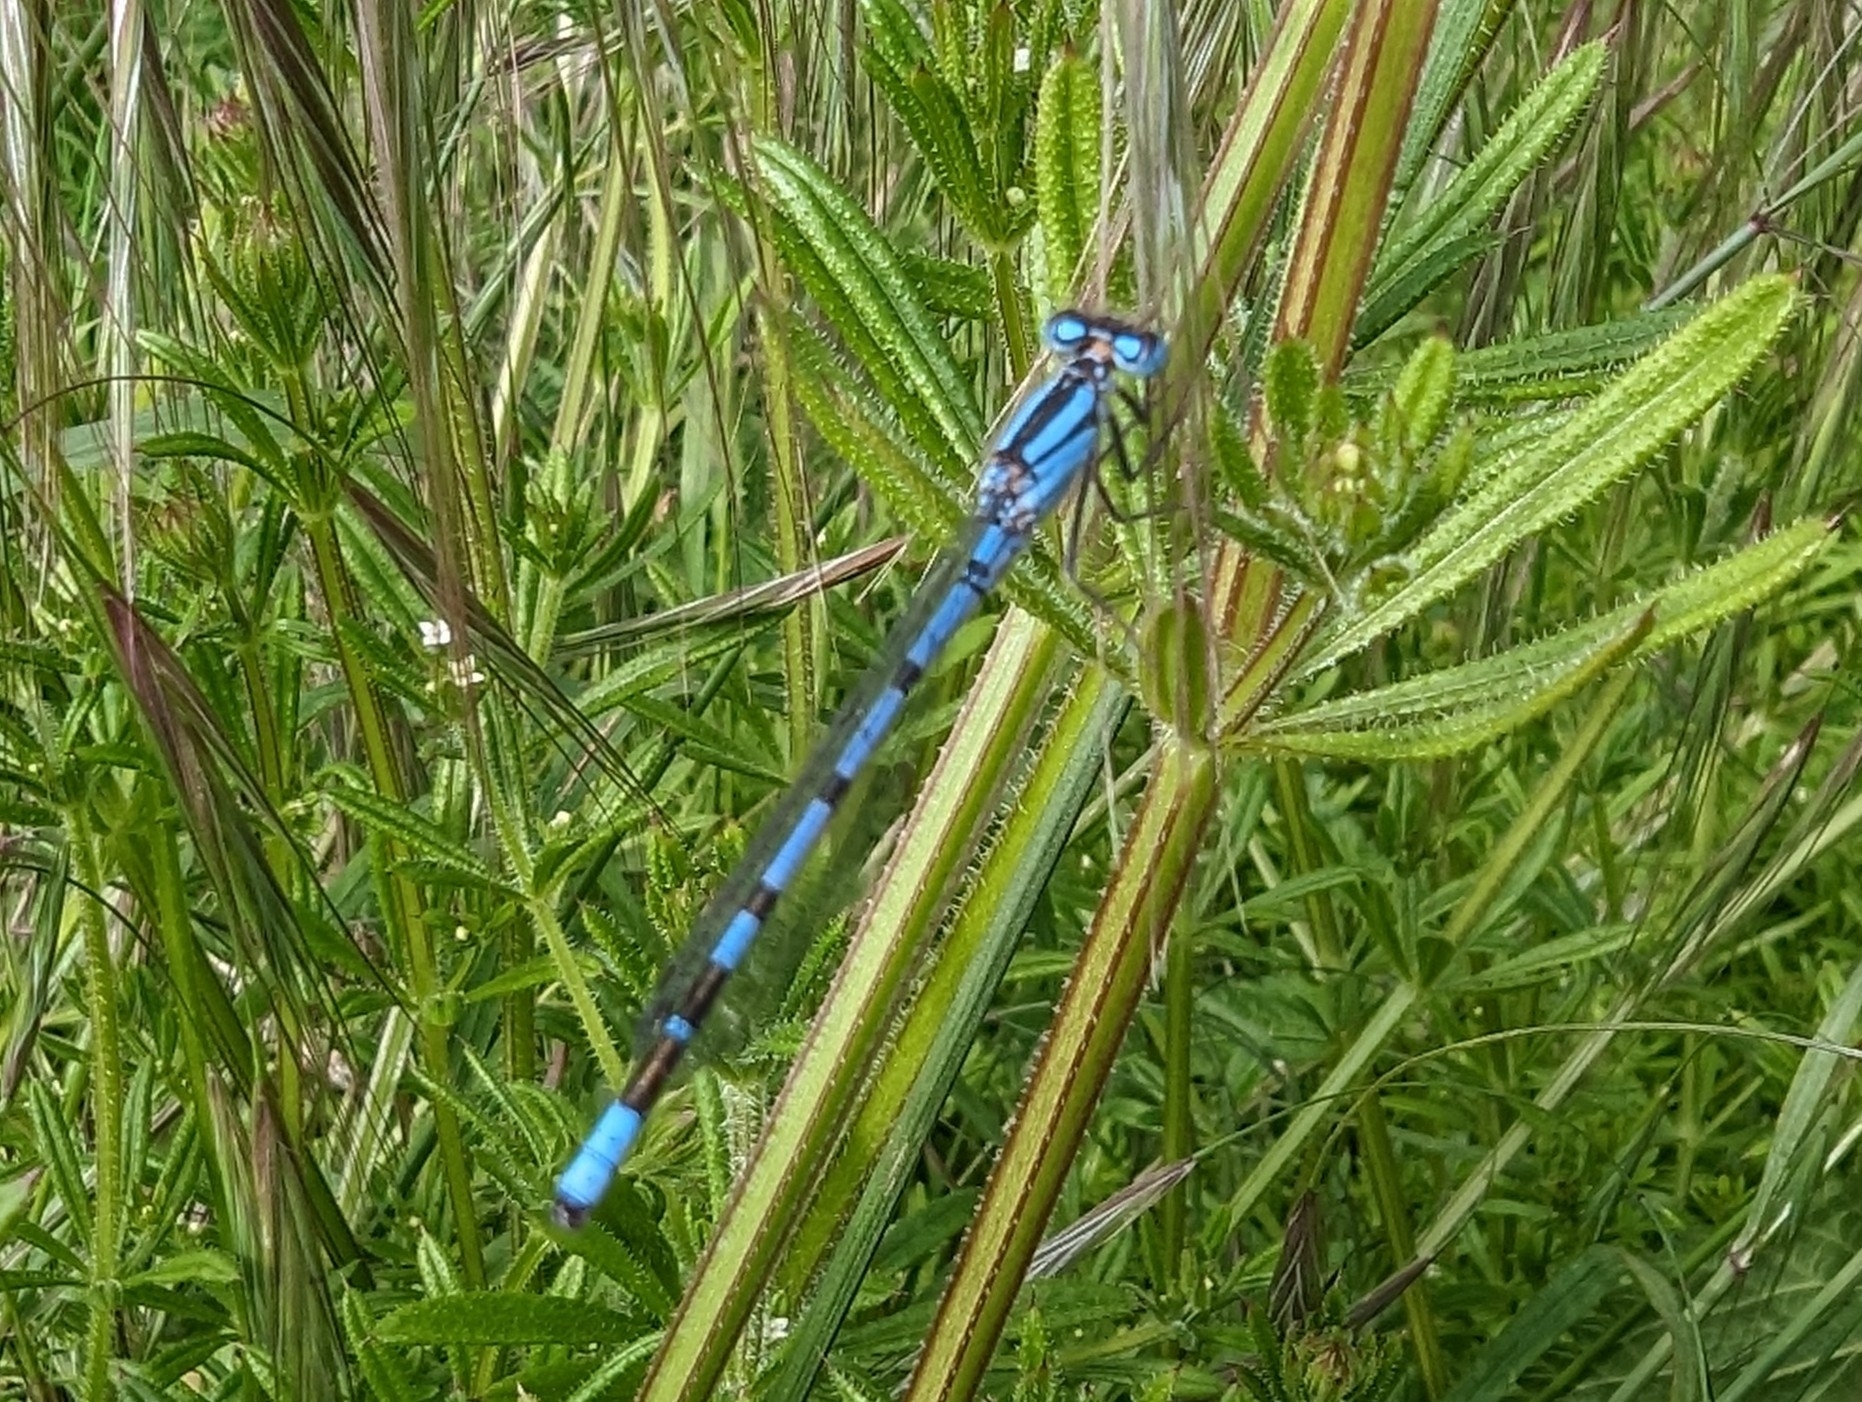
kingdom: Animalia
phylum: Arthropoda
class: Insecta
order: Odonata
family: Coenagrionidae
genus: Enallagma
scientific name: Enallagma cyathigerum
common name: Common blue damselfly
